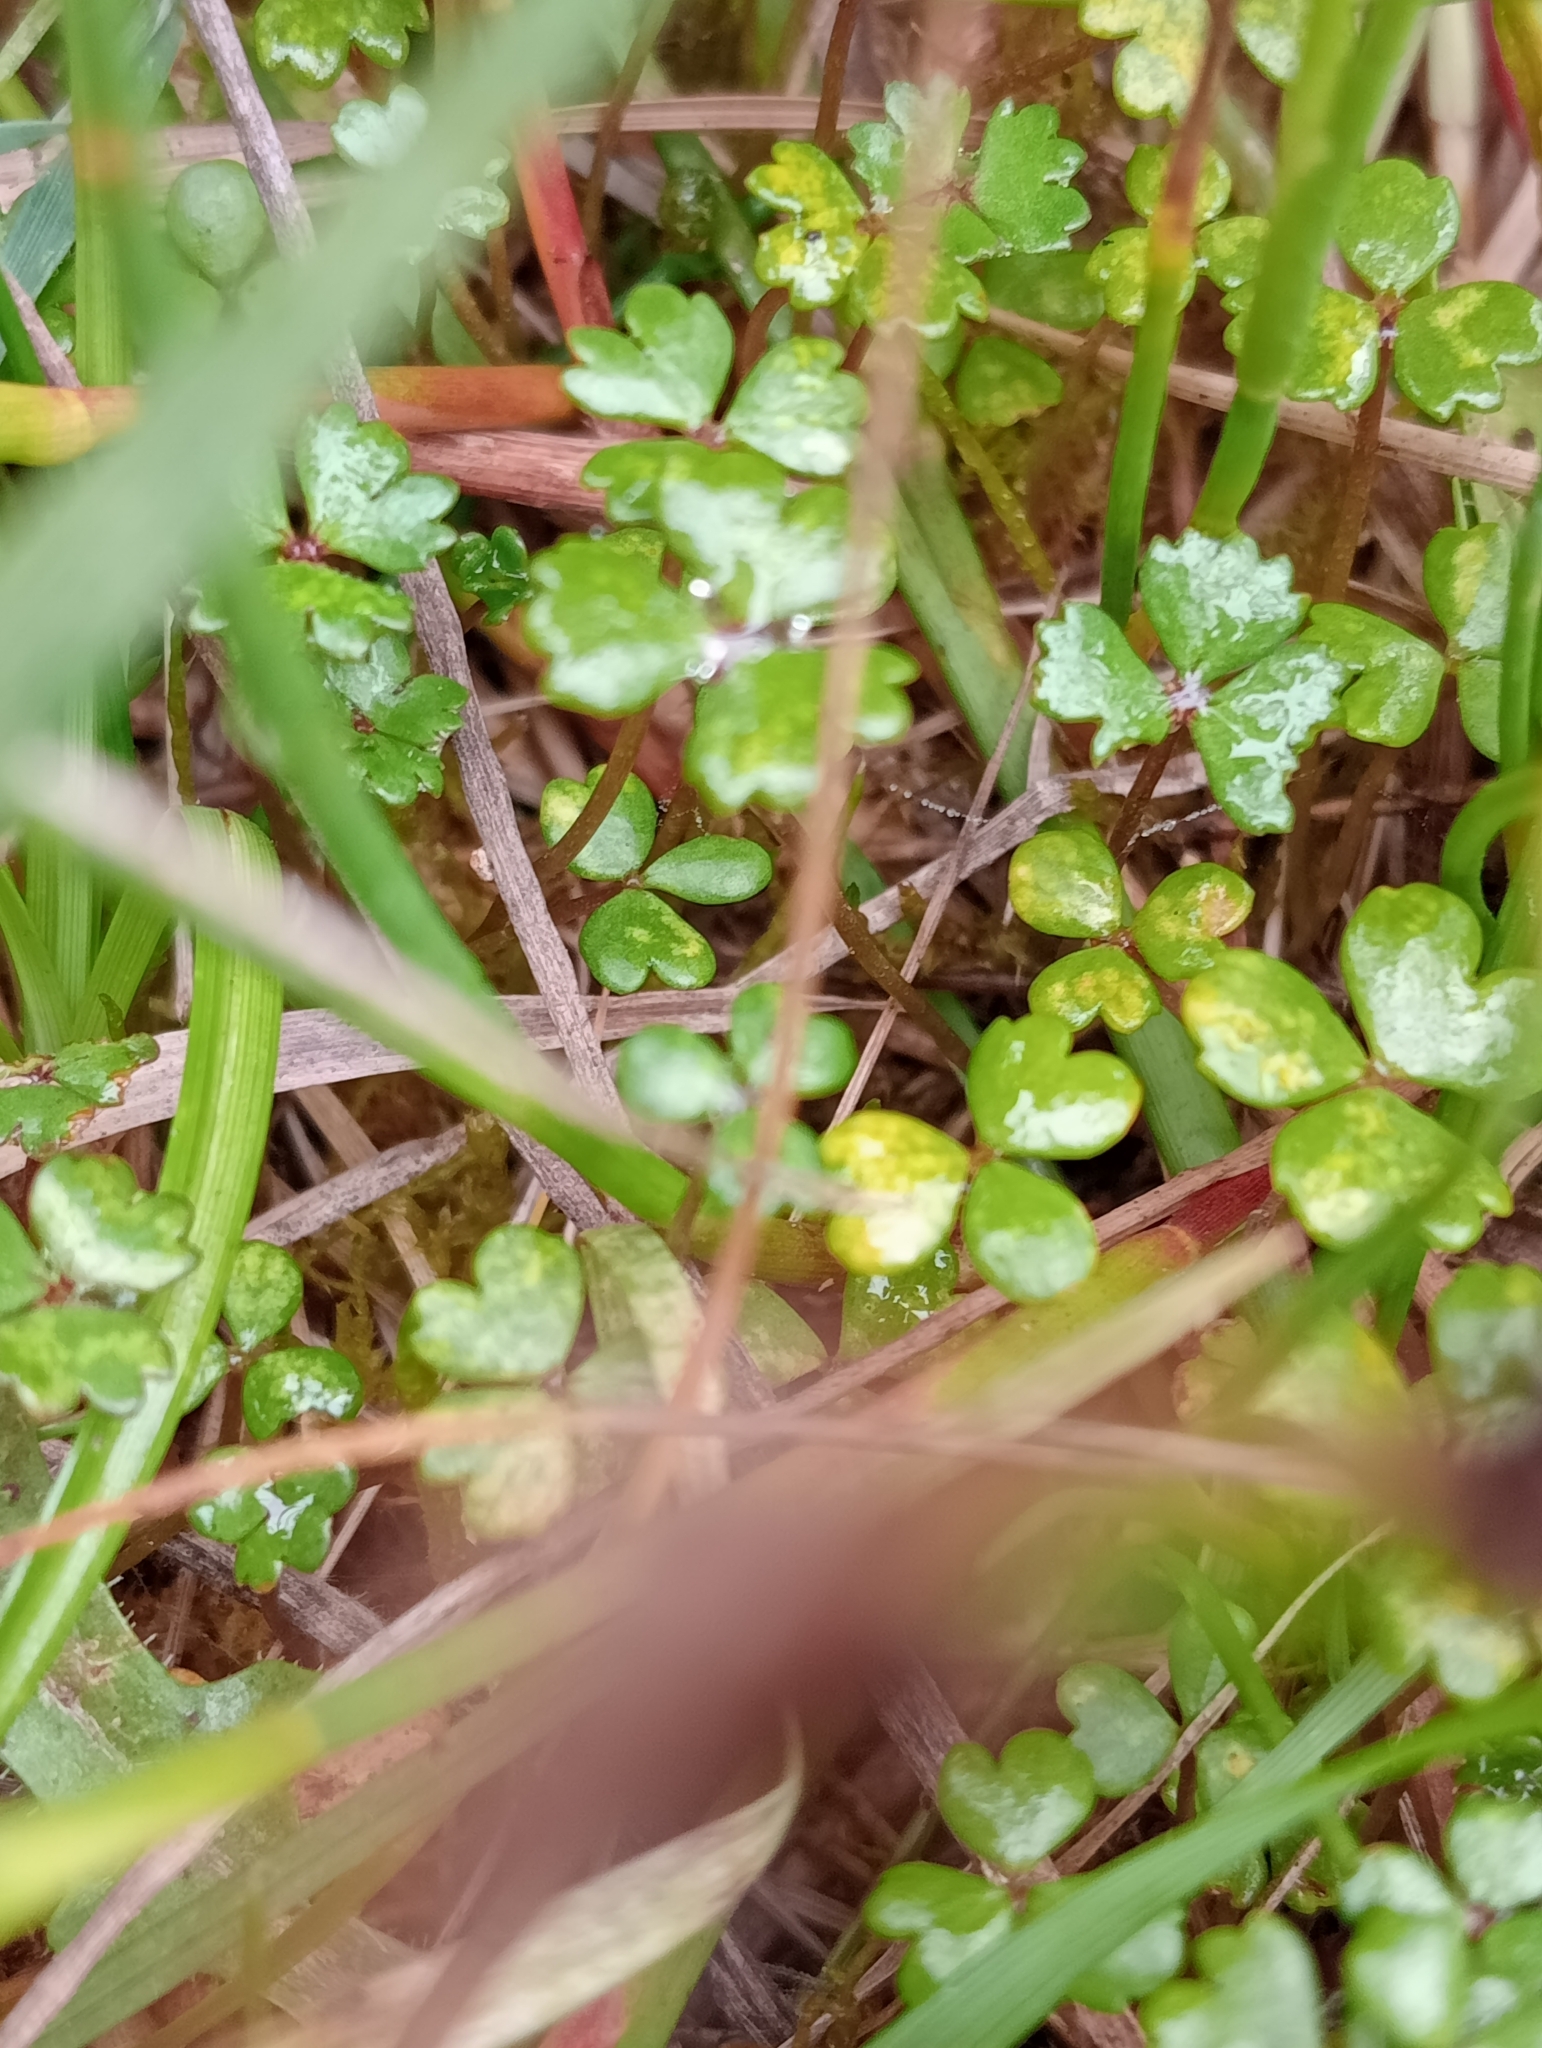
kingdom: Plantae
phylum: Tracheophyta
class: Magnoliopsida
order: Apiales
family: Araliaceae
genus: Hydrocotyle
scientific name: Hydrocotyle sulcata
